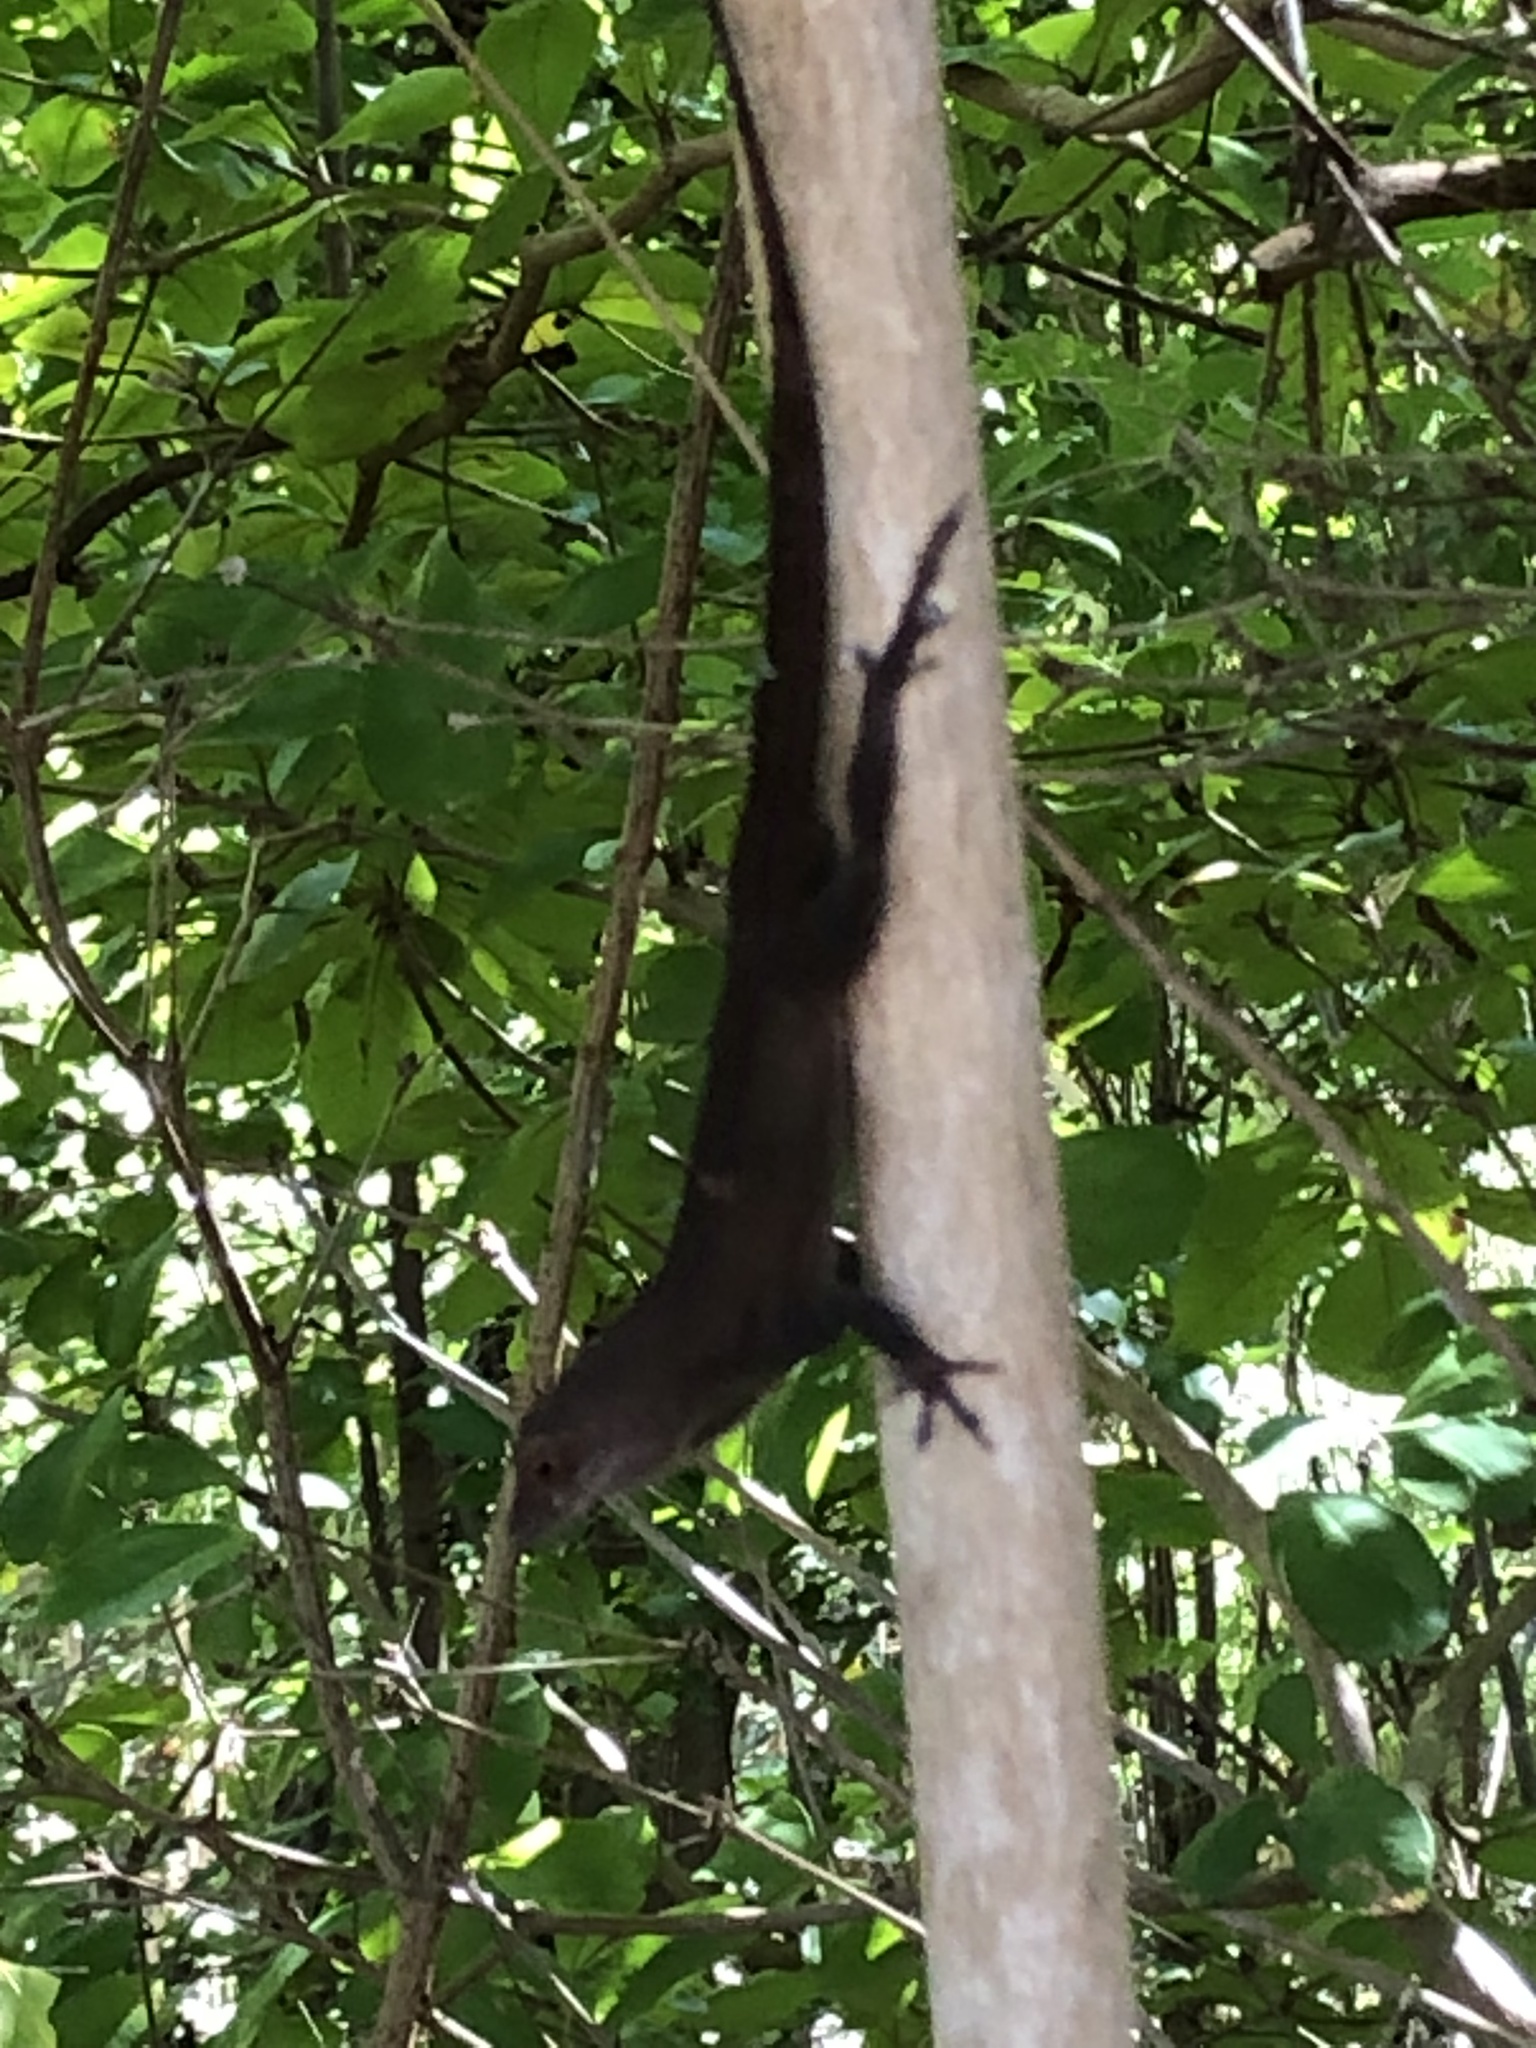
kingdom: Animalia
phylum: Chordata
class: Squamata
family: Dactyloidae
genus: Anolis
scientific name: Anolis cristatellus
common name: Crested anole
